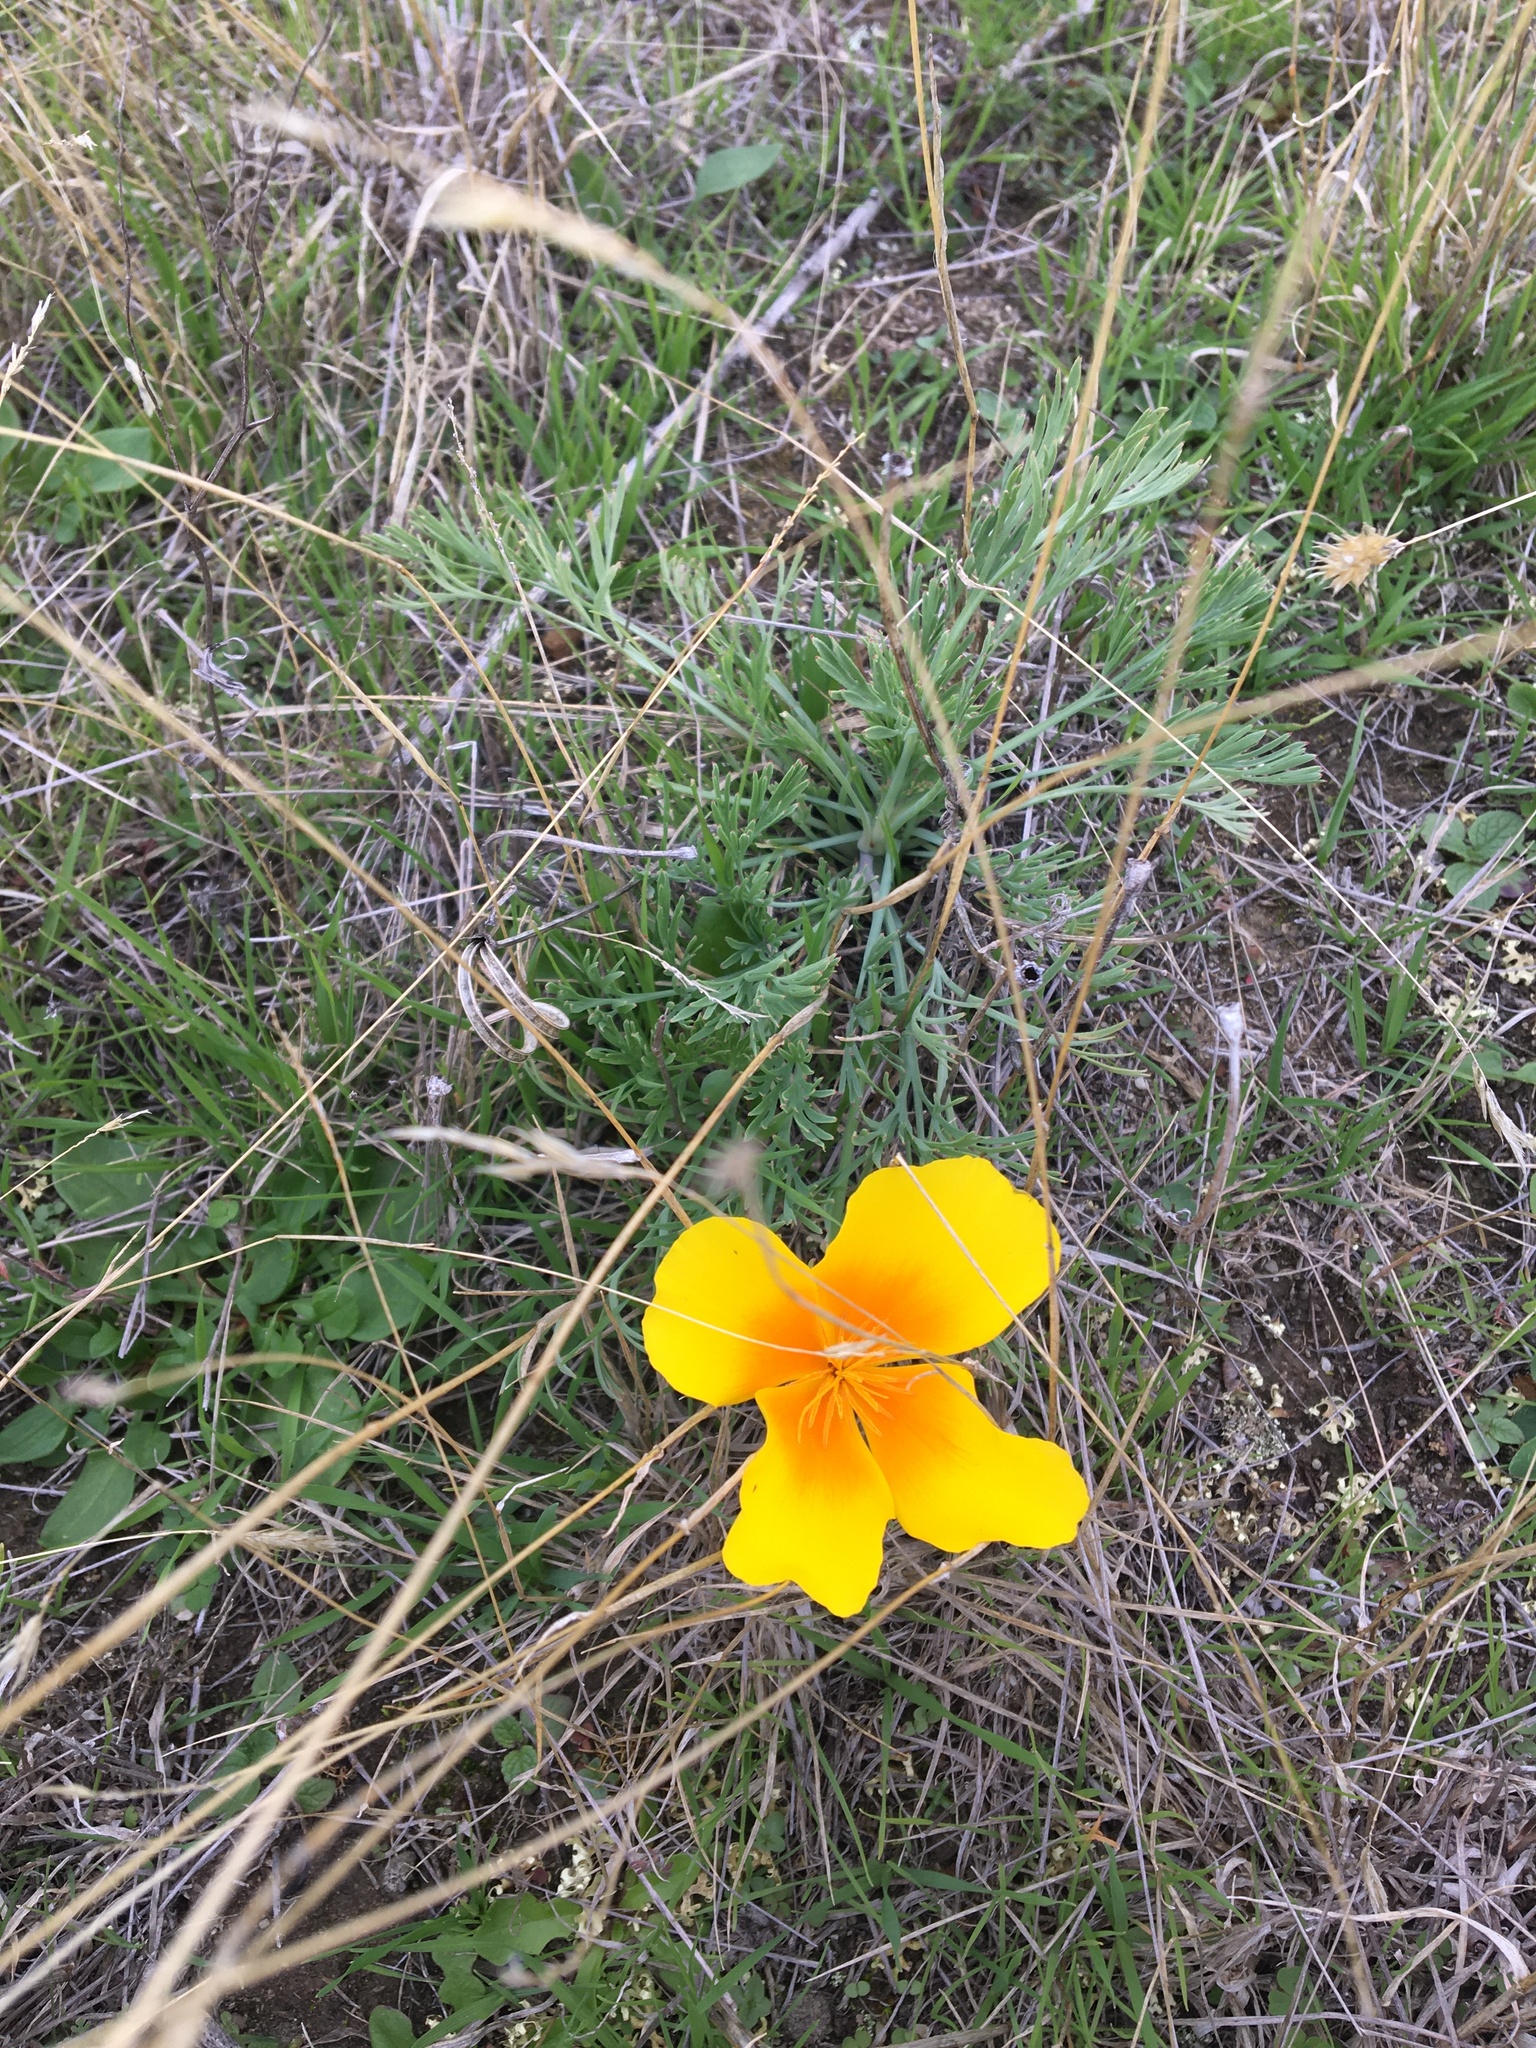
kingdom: Plantae
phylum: Tracheophyta
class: Magnoliopsida
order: Ranunculales
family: Papaveraceae
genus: Eschscholzia
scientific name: Eschscholzia californica
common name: California poppy
